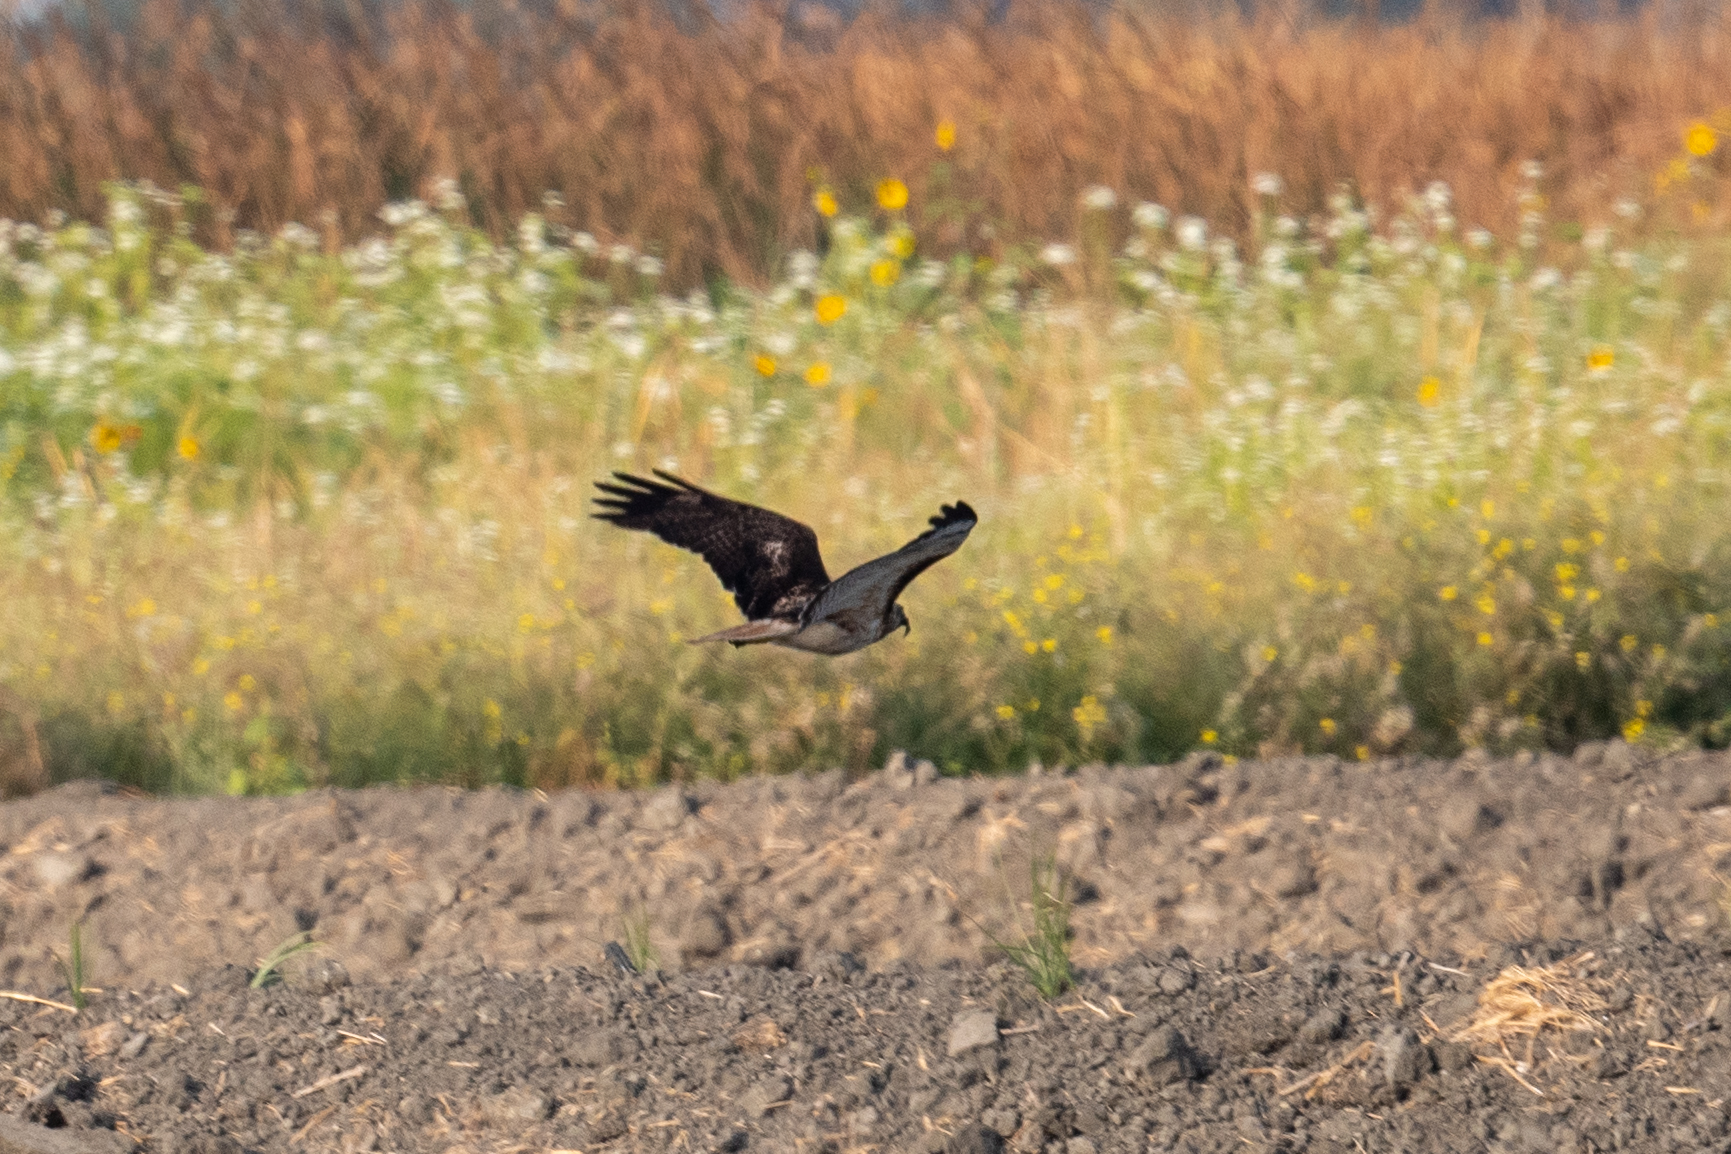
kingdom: Animalia
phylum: Chordata
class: Aves
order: Accipitriformes
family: Accipitridae
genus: Buteo
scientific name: Buteo jamaicensis
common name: Red-tailed hawk
